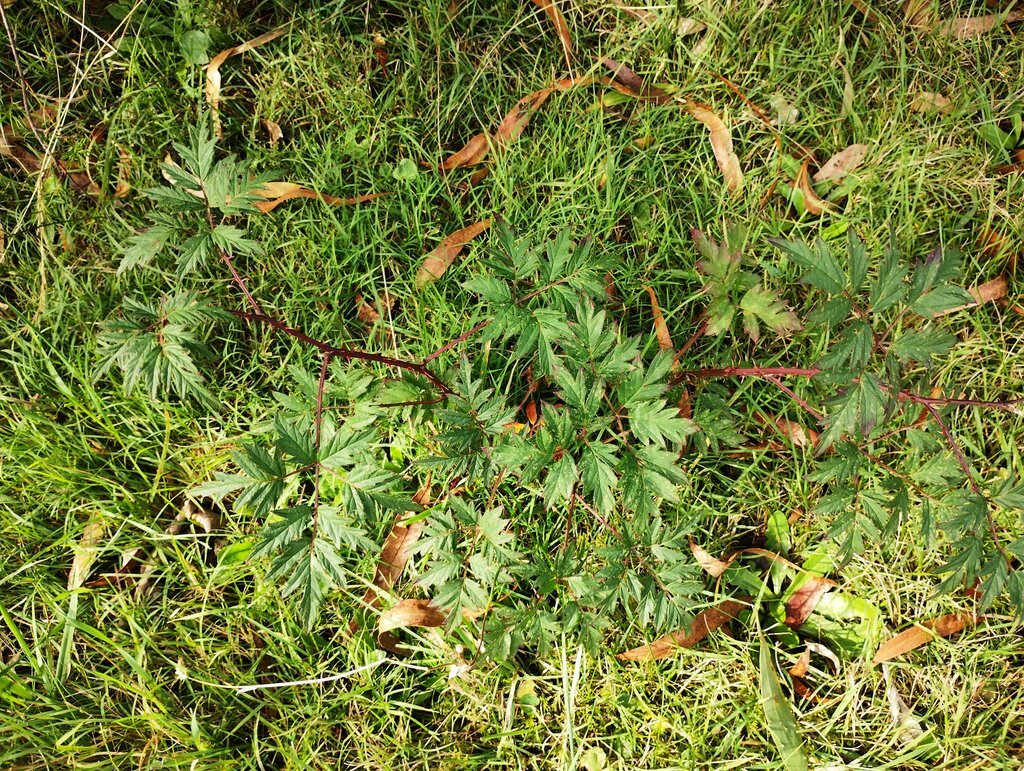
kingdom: Plantae
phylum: Tracheophyta
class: Magnoliopsida
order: Rosales
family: Rosaceae
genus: Rubus
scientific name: Rubus laciniatus
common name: Evergreen blackberry
